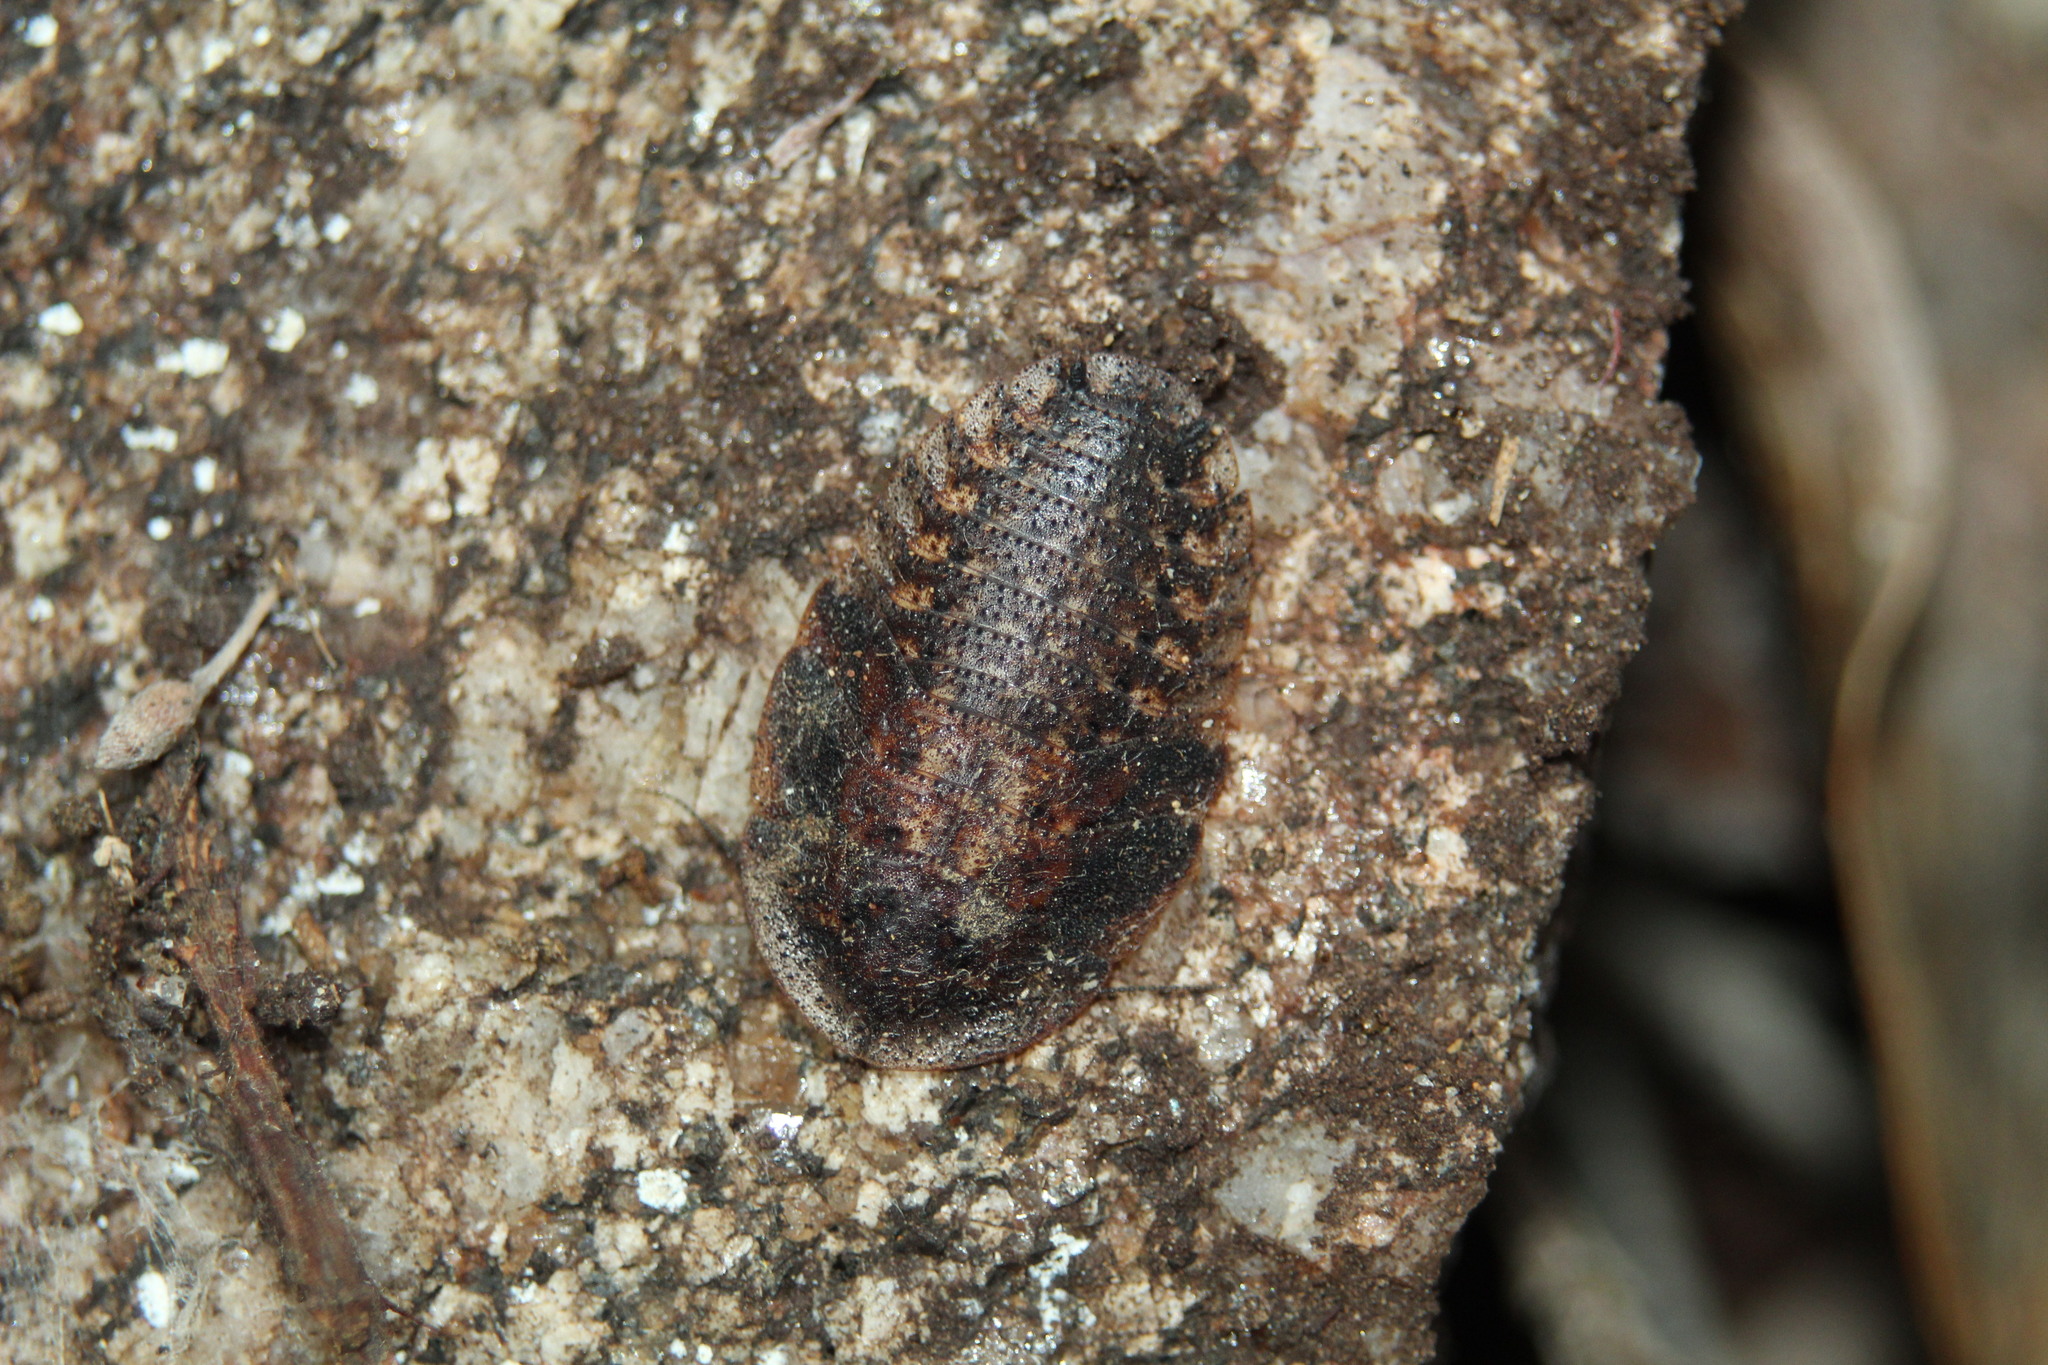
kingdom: Animalia
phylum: Arthropoda
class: Insecta
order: Blattodea
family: Blaberidae
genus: Laxta
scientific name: Laxta rieki
